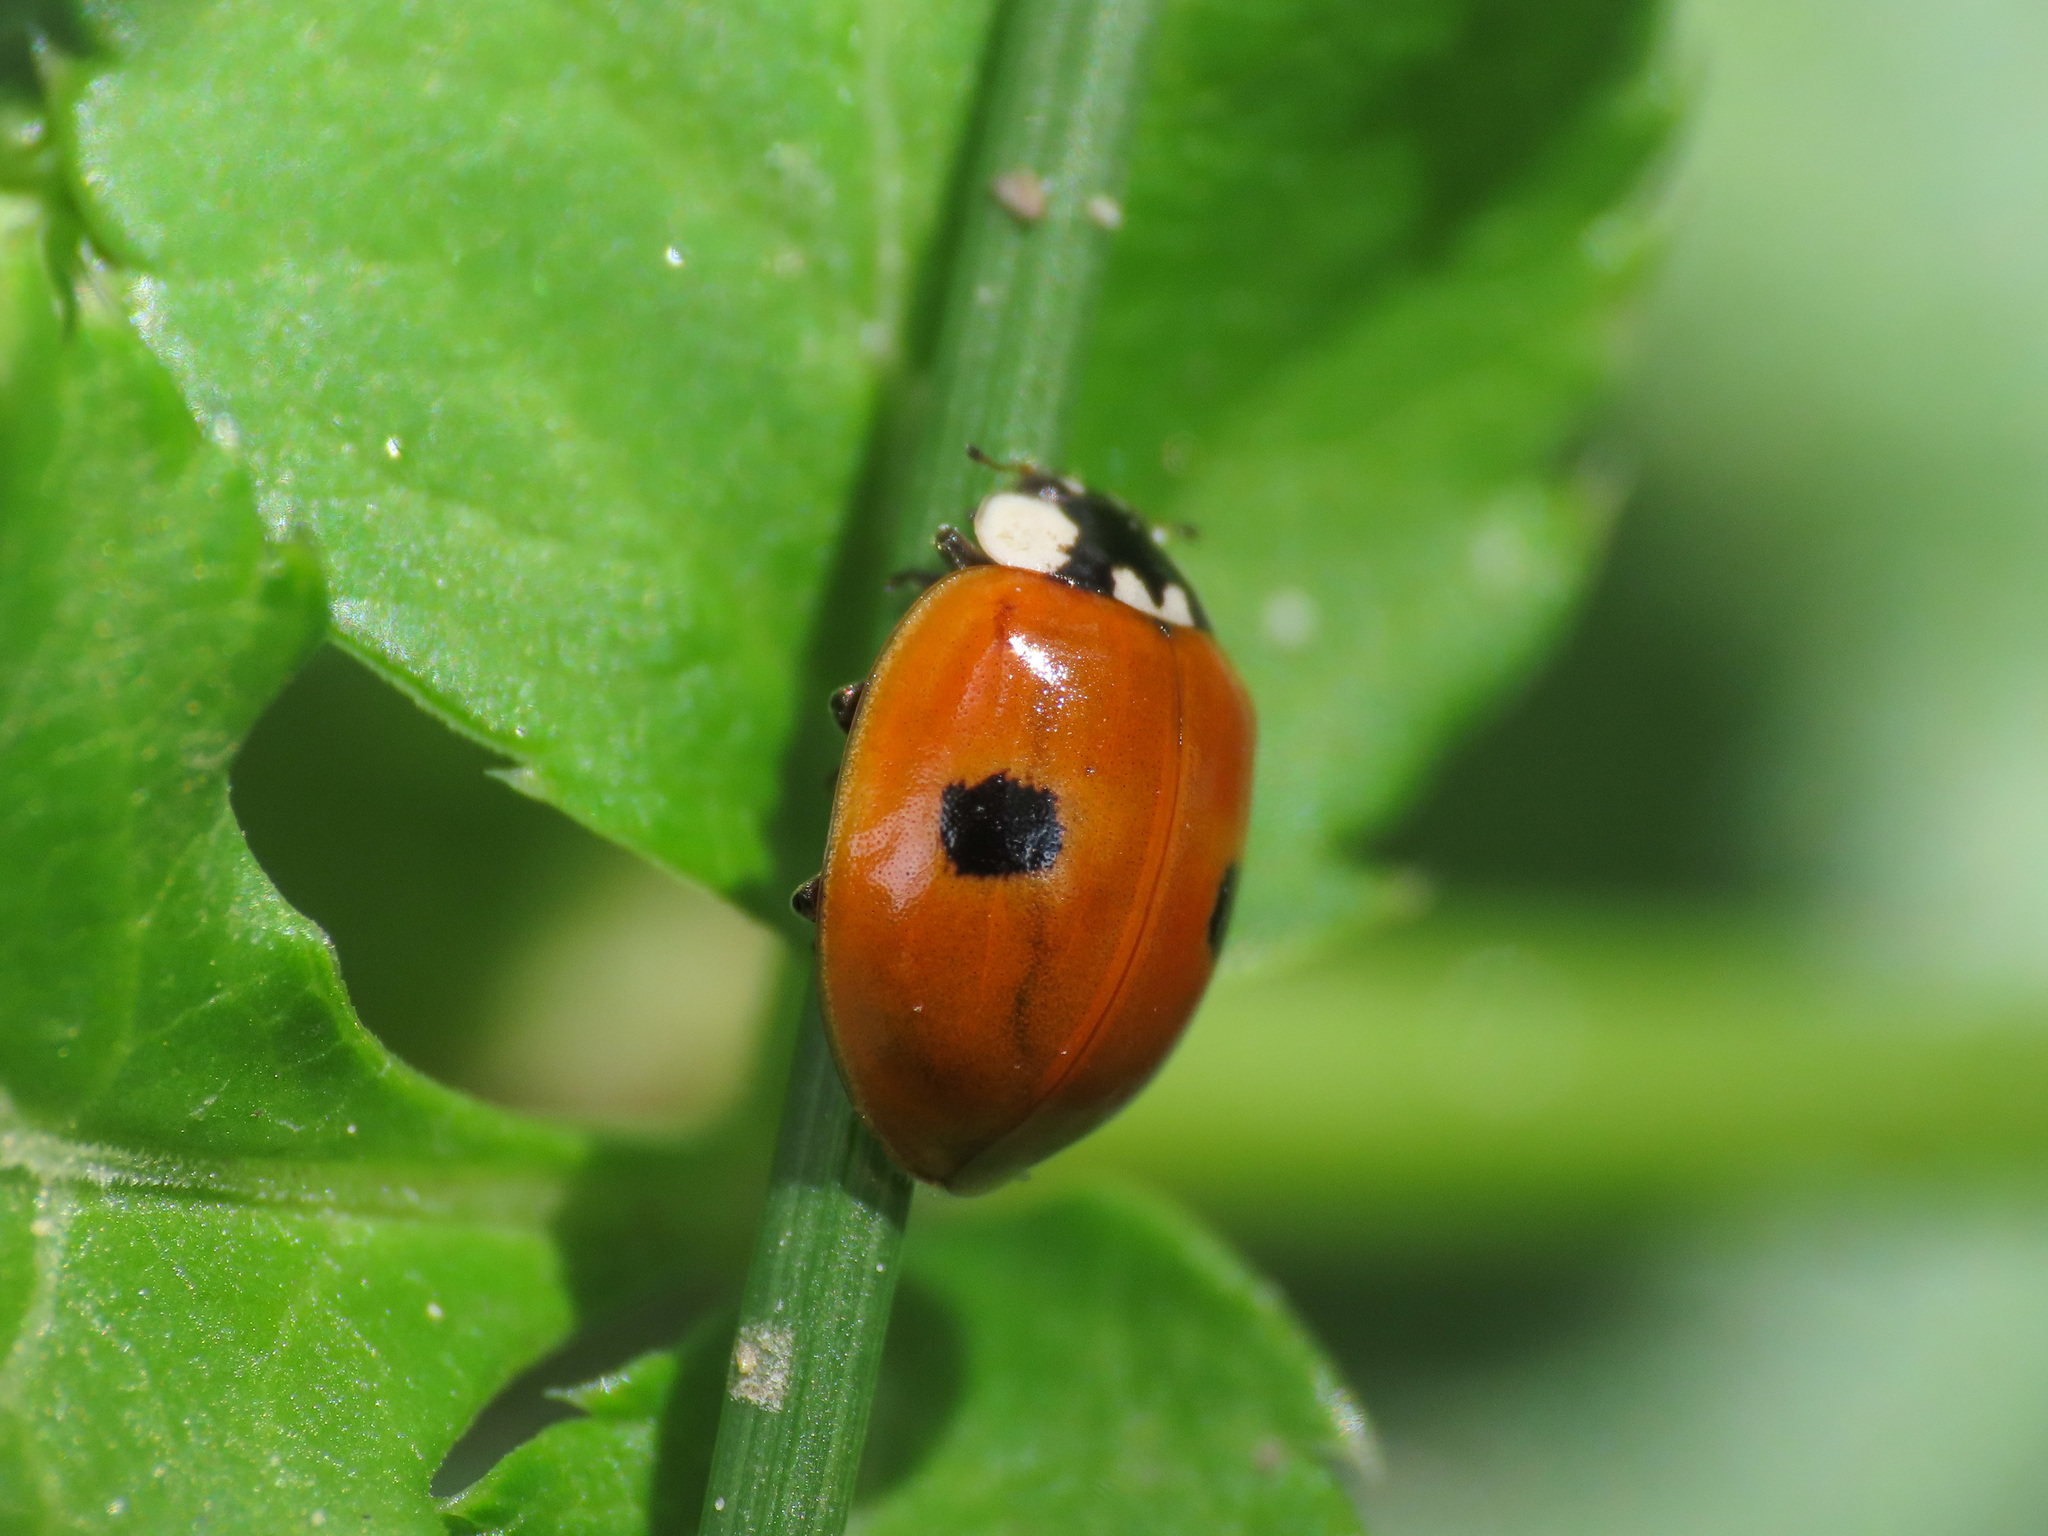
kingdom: Animalia
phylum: Arthropoda
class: Insecta
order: Coleoptera
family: Coccinellidae
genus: Adalia
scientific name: Adalia bipunctata
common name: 2-spot ladybird
